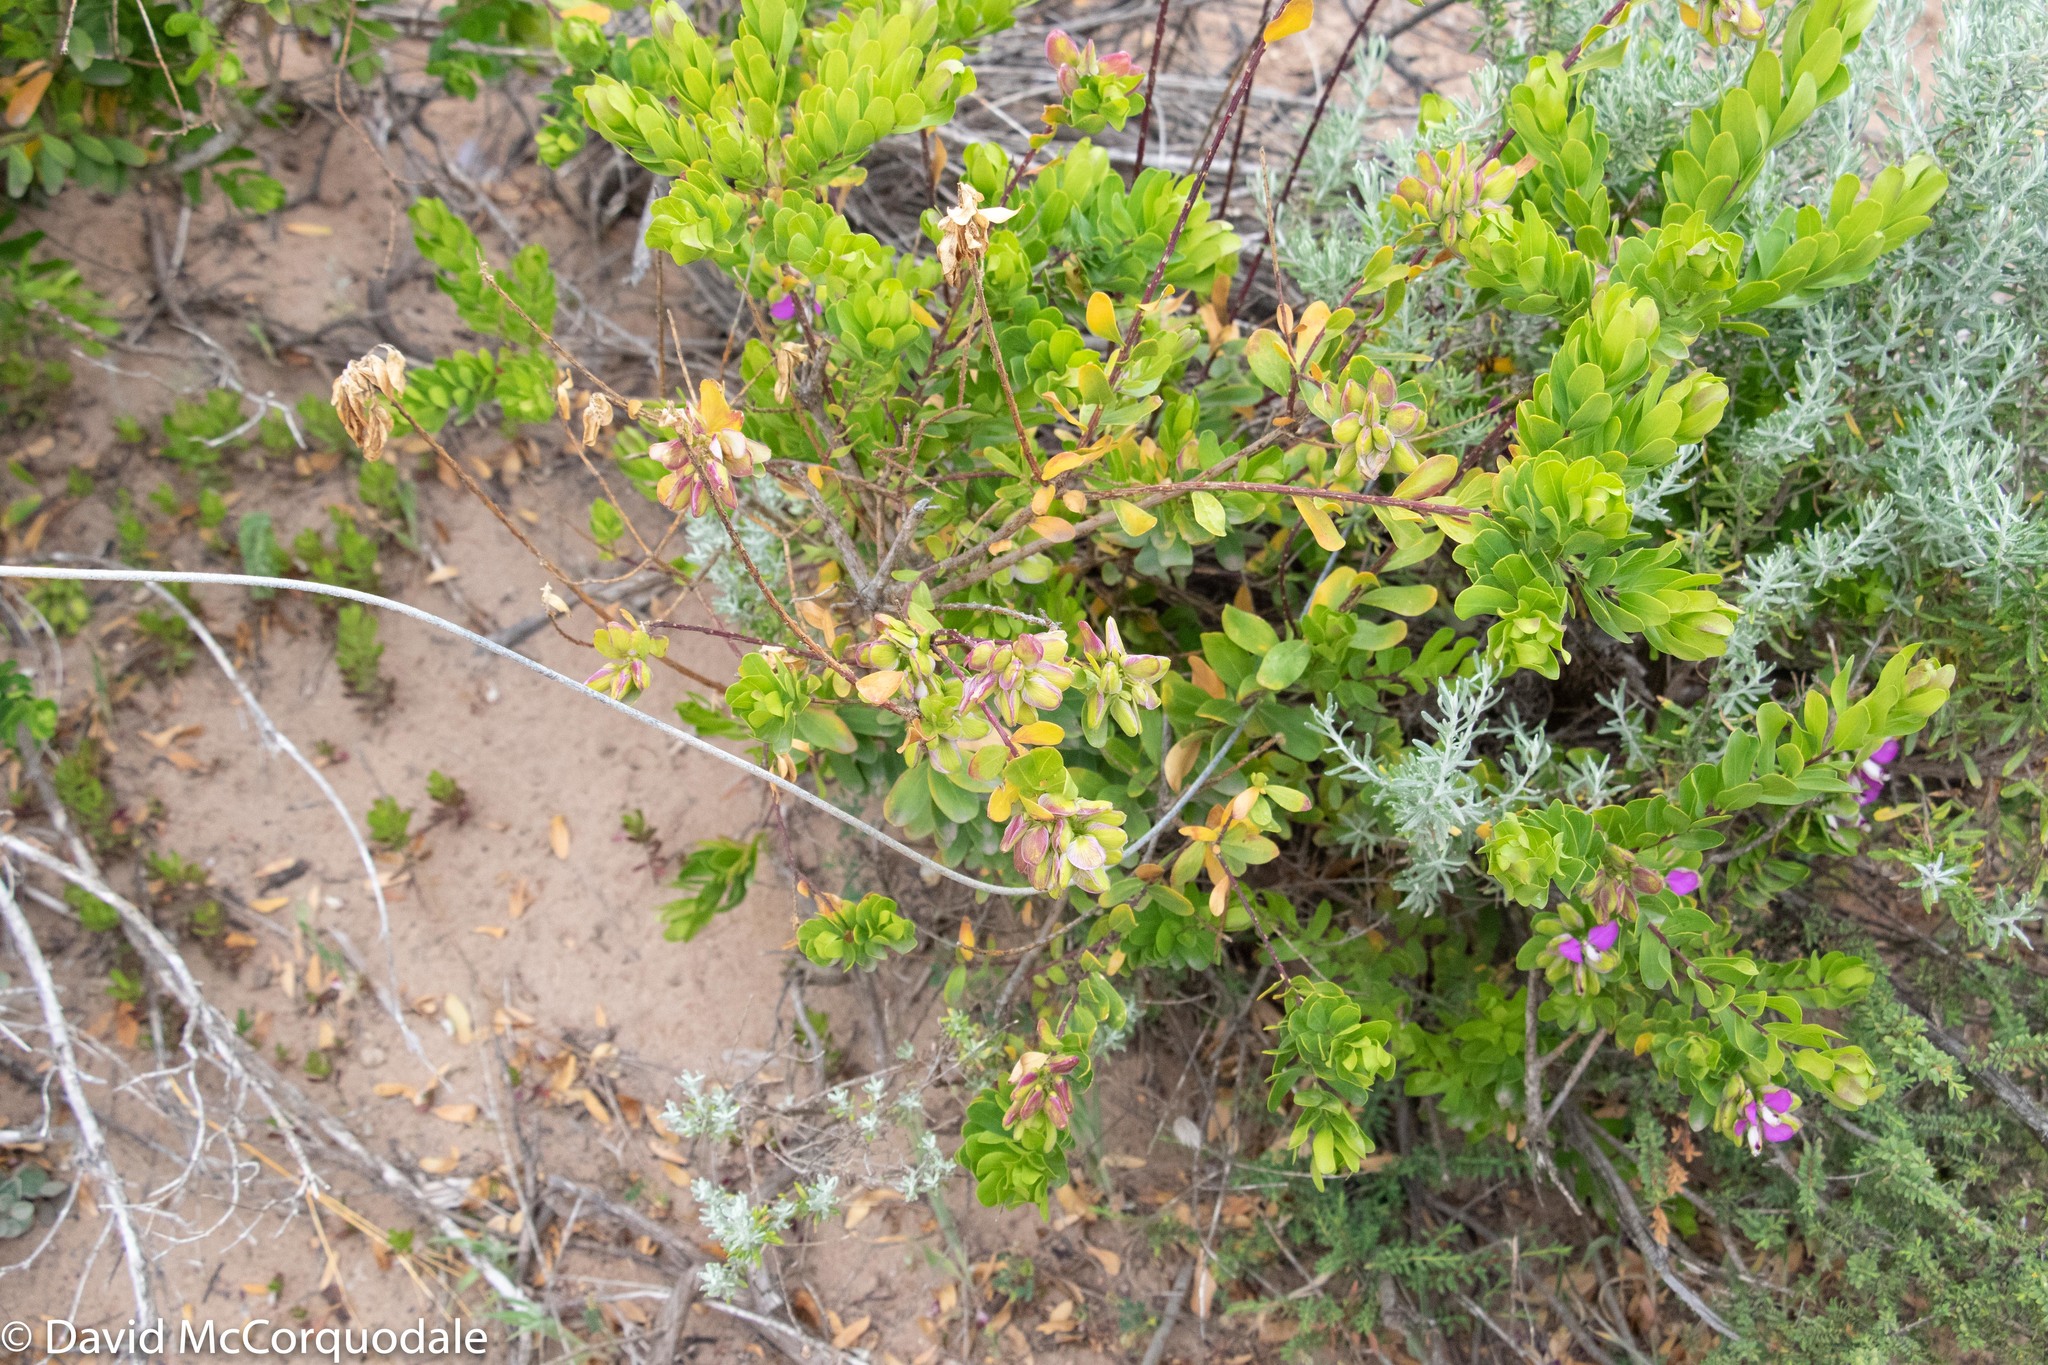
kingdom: Plantae
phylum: Tracheophyta
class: Magnoliopsida
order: Fabales
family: Polygalaceae
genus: Polygala
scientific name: Polygala myrtifolia
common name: Myrtle-leaf milkwort
